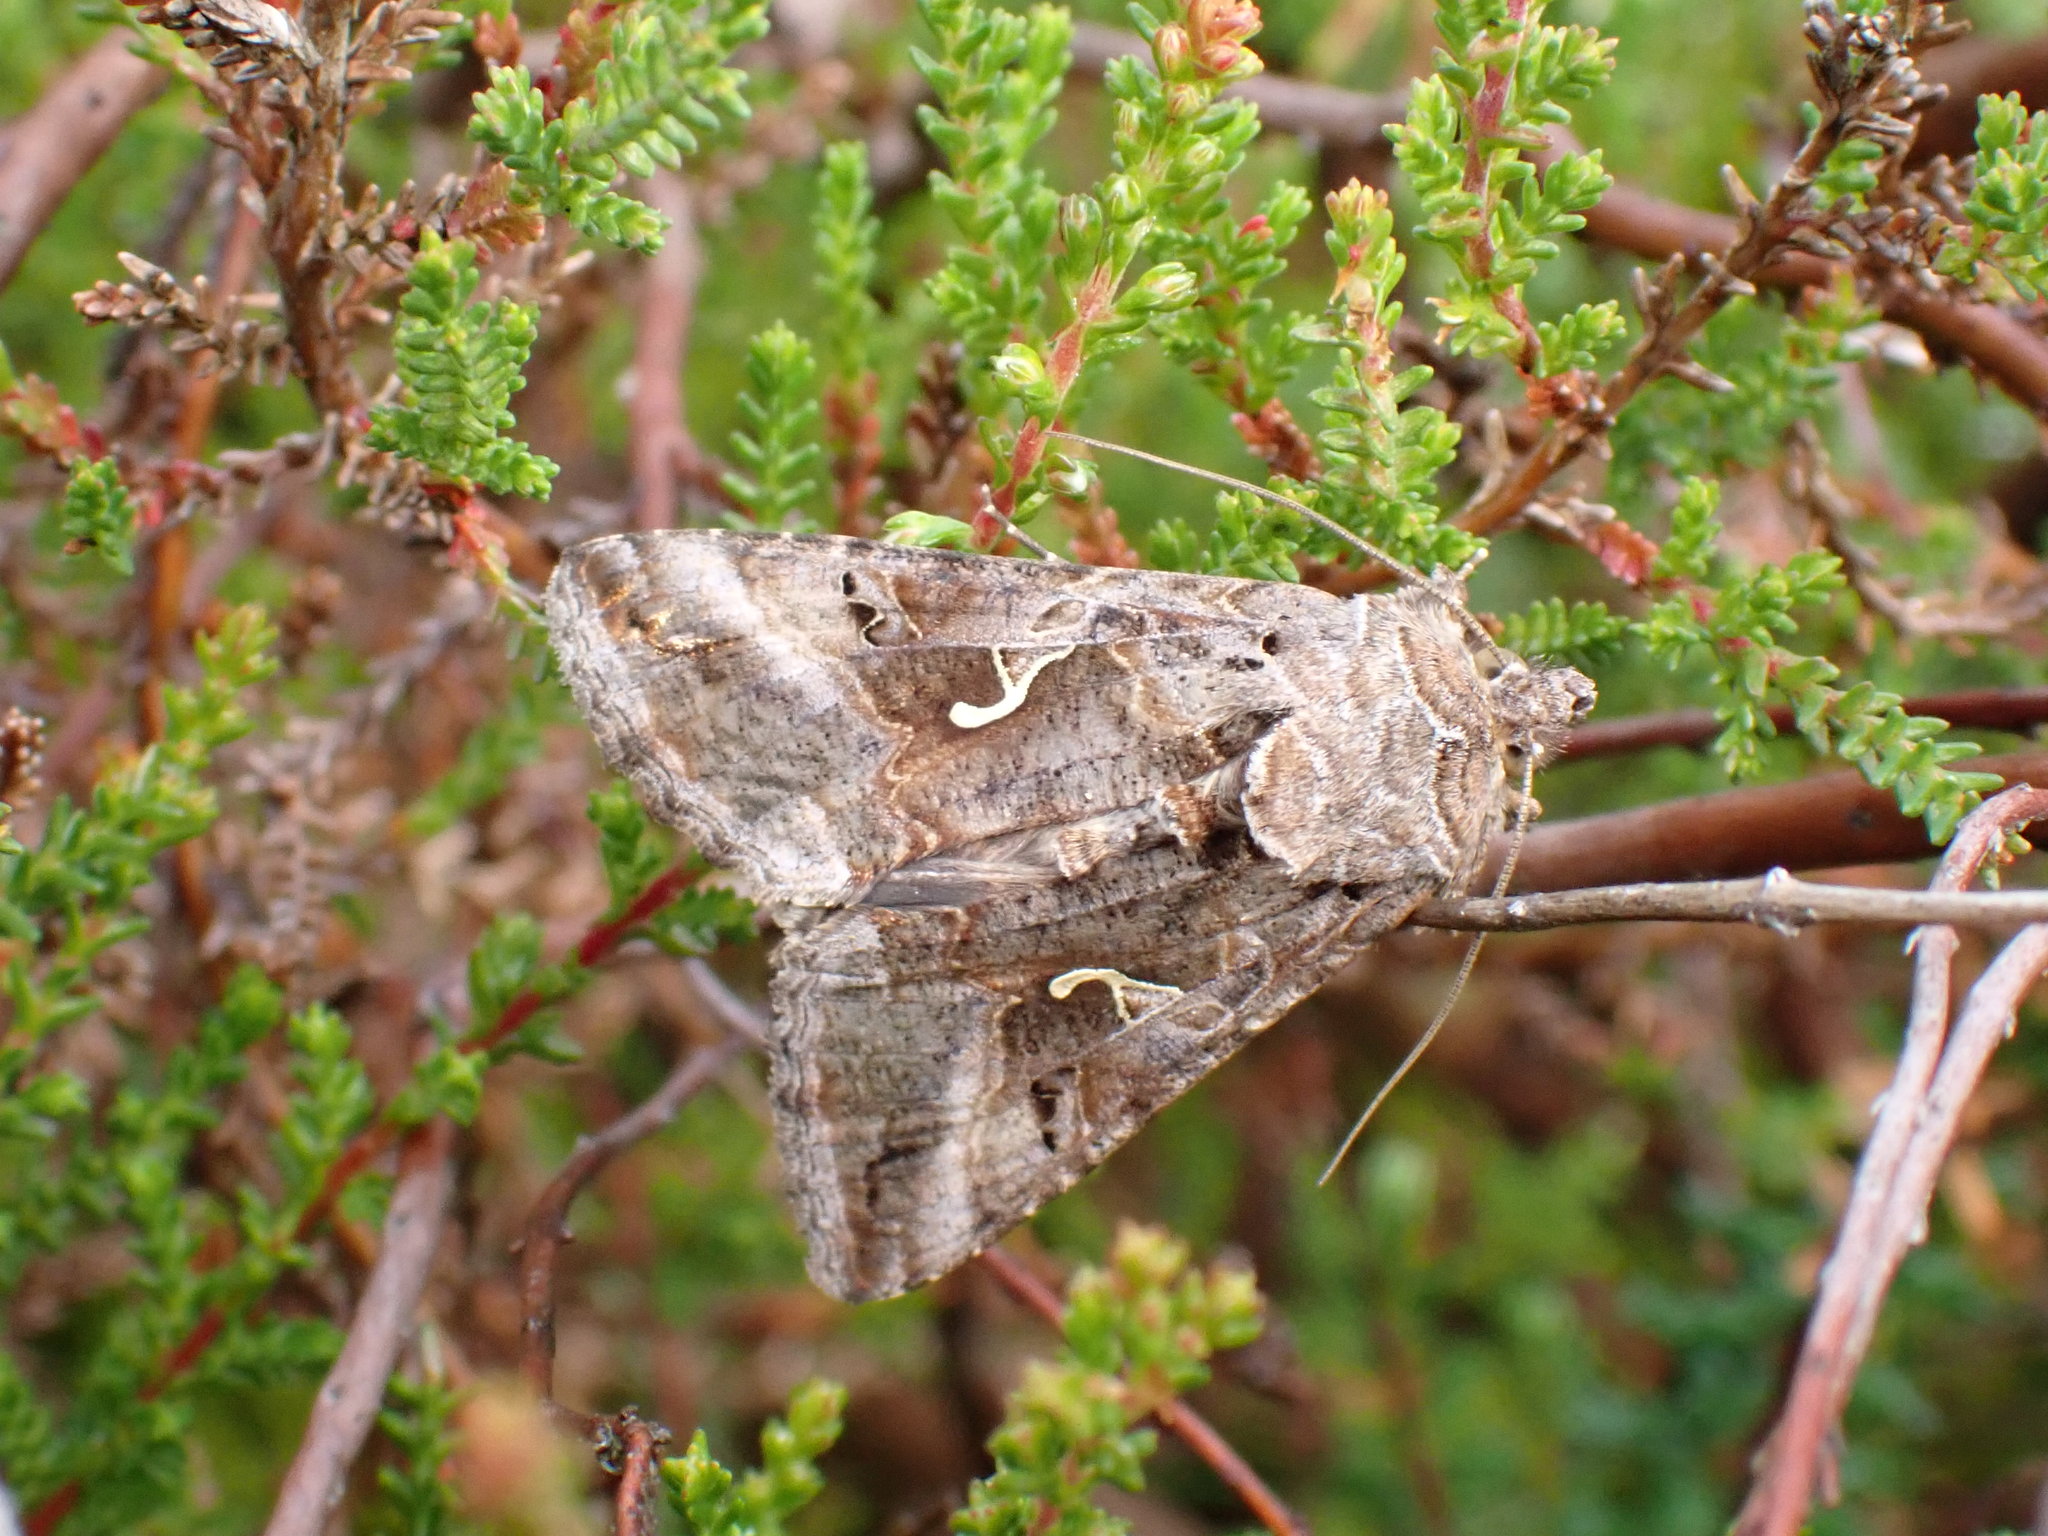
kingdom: Animalia
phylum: Arthropoda
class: Insecta
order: Lepidoptera
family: Noctuidae
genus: Autographa
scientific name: Autographa gamma
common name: Silver y
